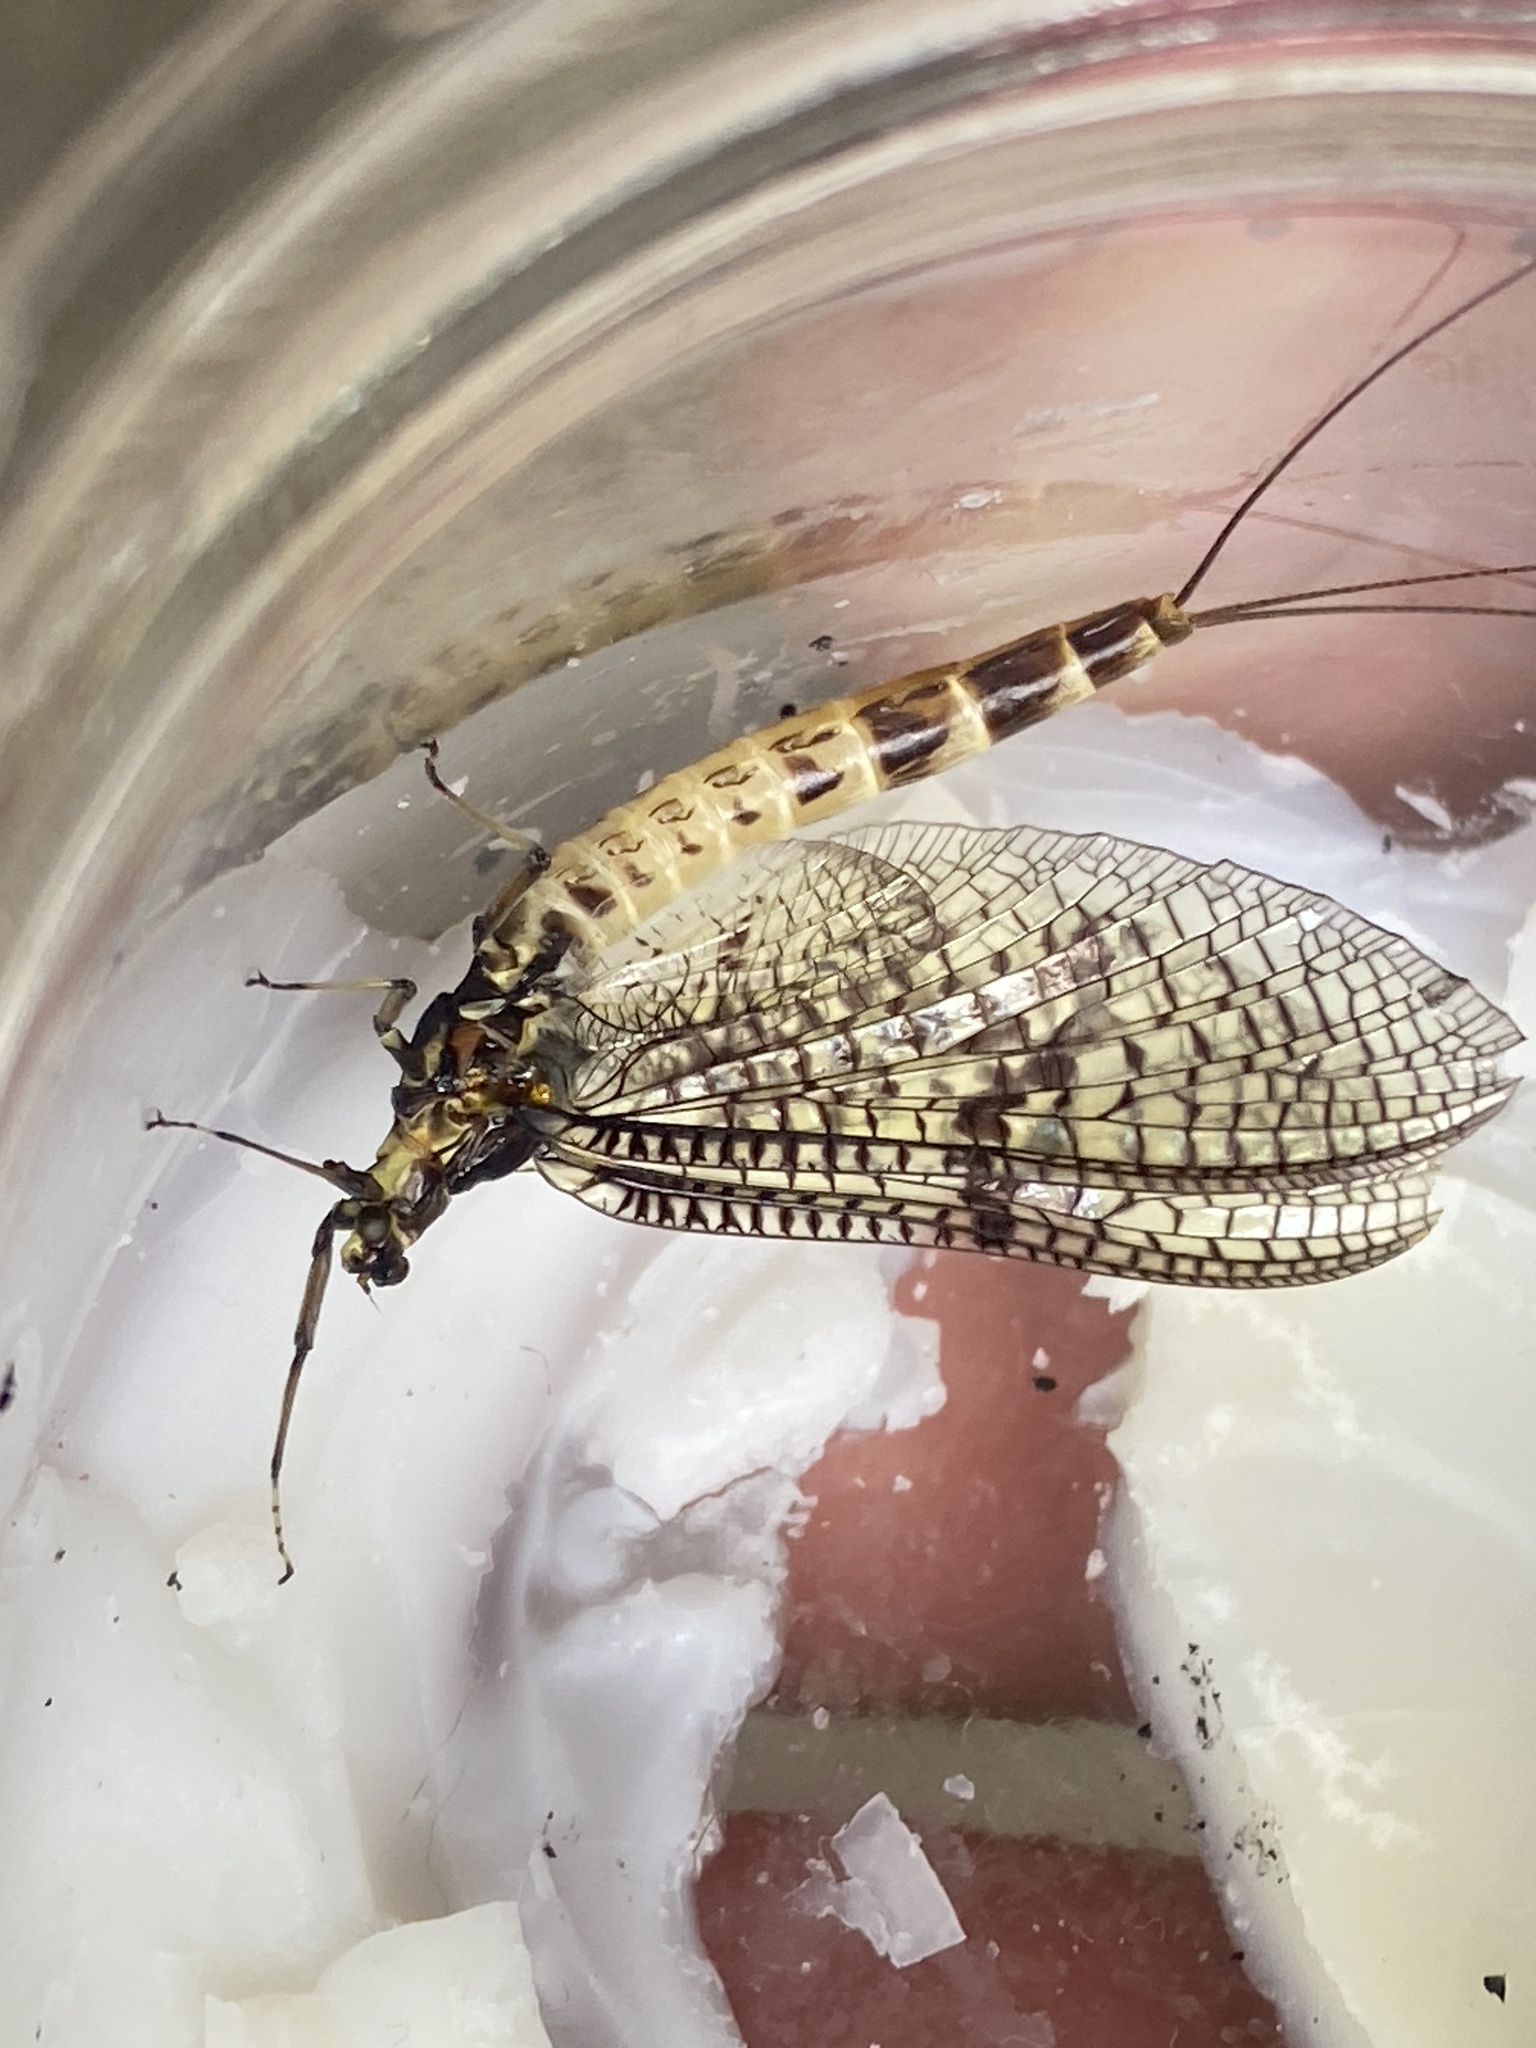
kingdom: Animalia
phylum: Arthropoda
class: Insecta
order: Ephemeroptera
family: Ephemeridae
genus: Ephemera
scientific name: Ephemera danica
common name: Green dun
